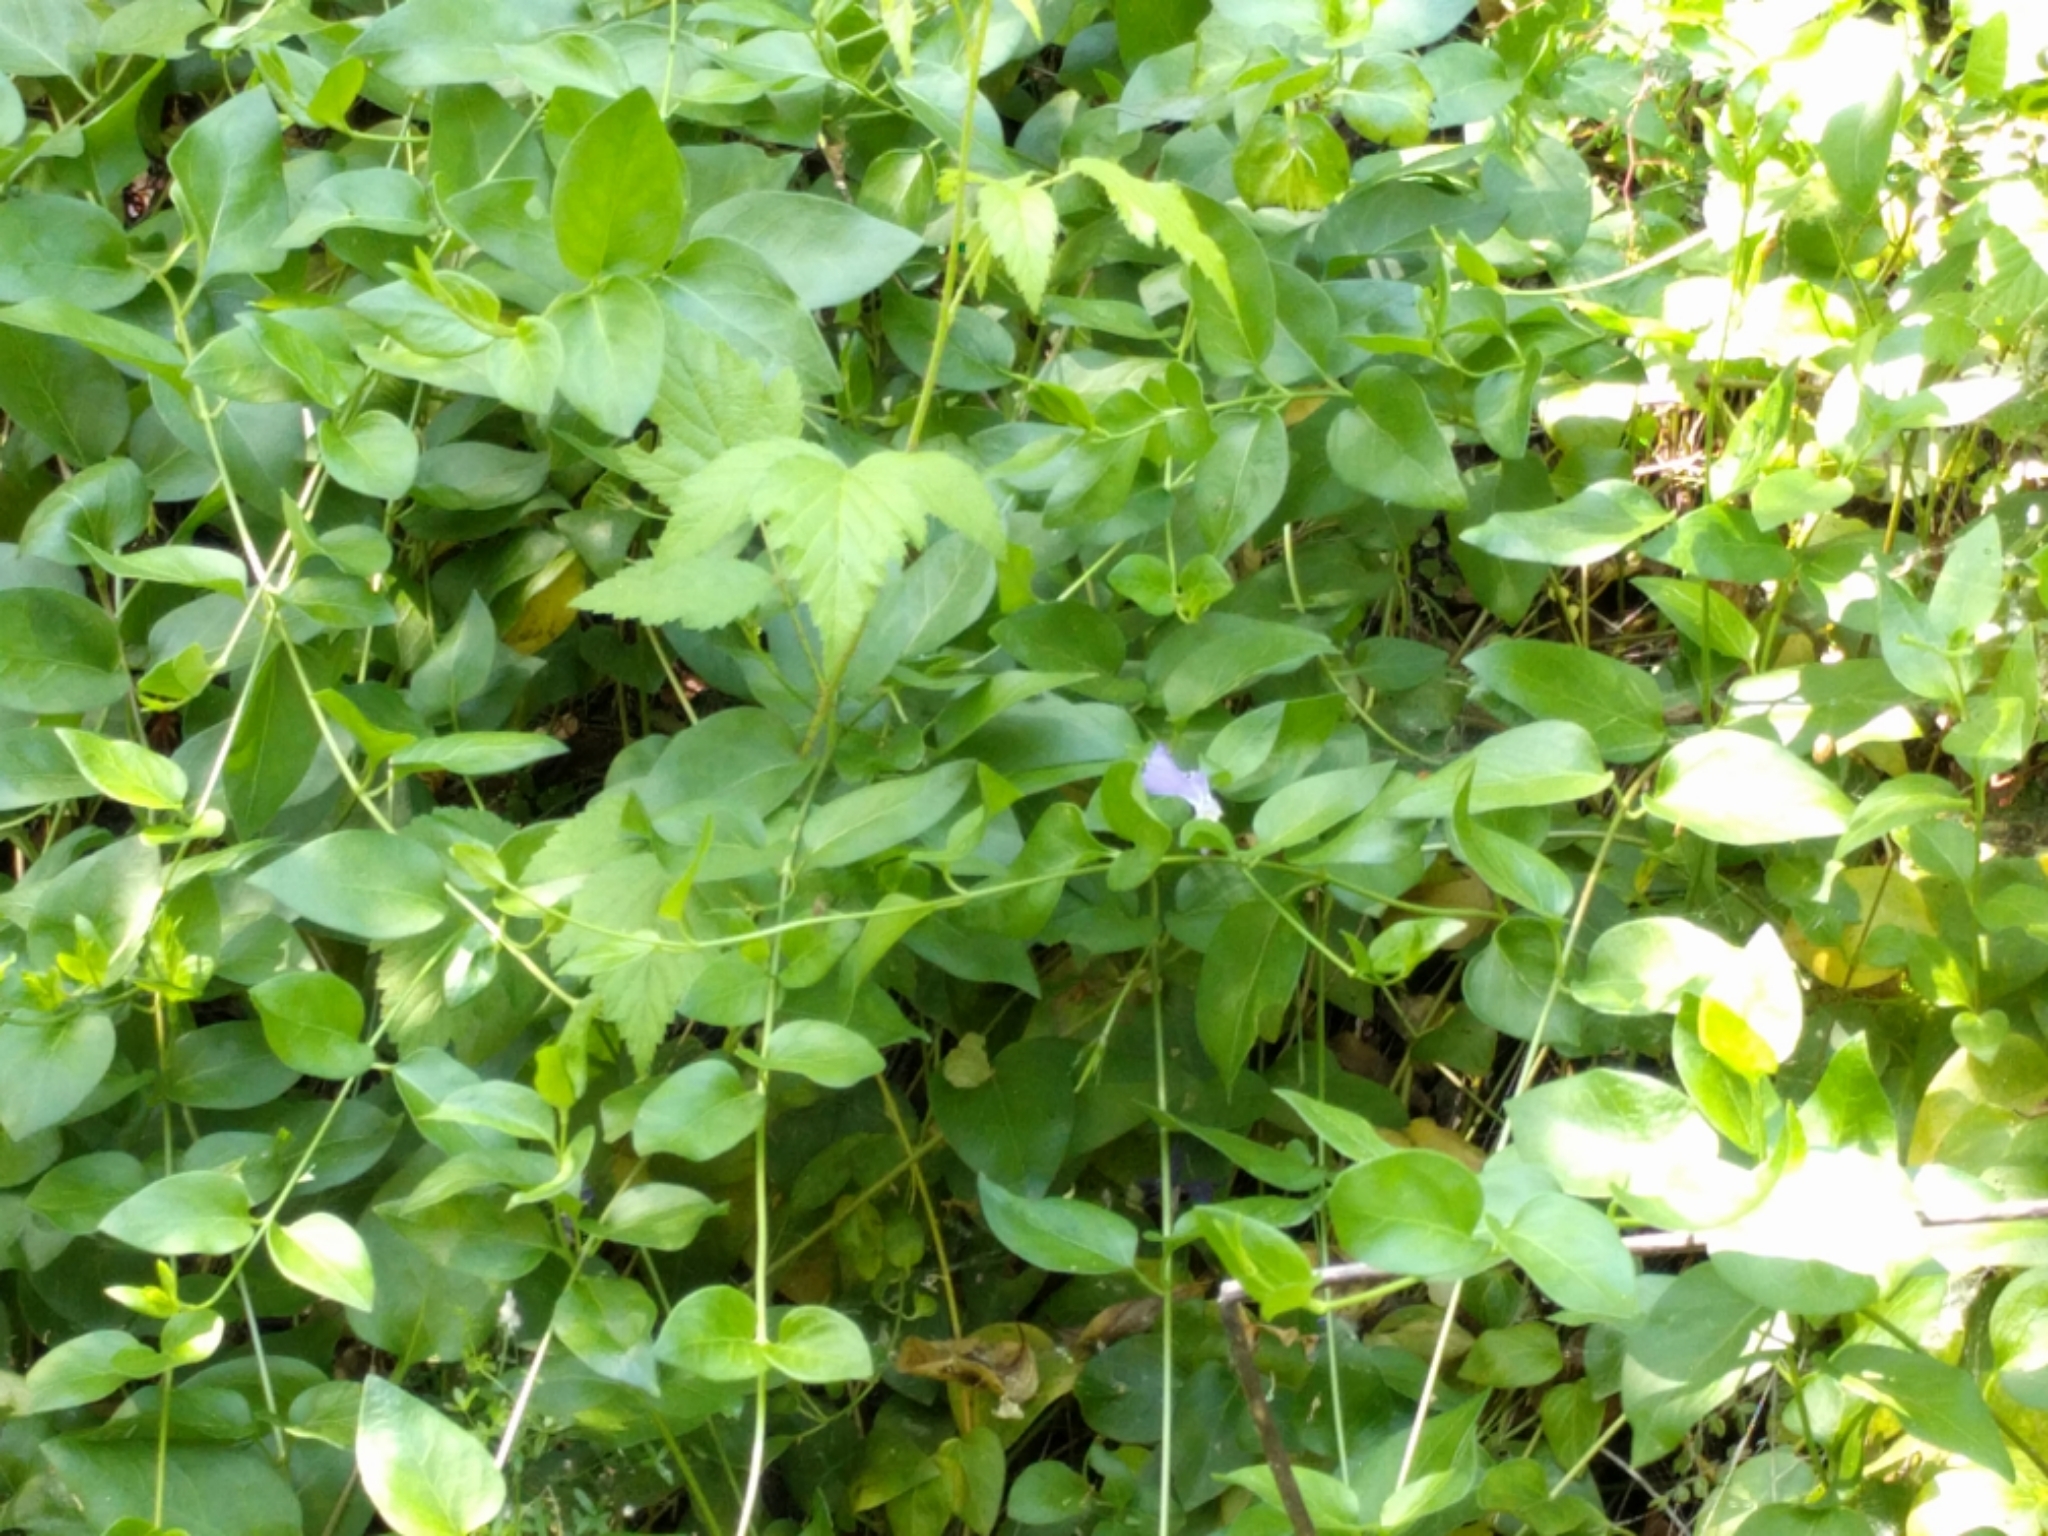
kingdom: Plantae
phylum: Tracheophyta
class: Magnoliopsida
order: Gentianales
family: Apocynaceae
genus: Vinca
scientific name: Vinca major
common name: Greater periwinkle
